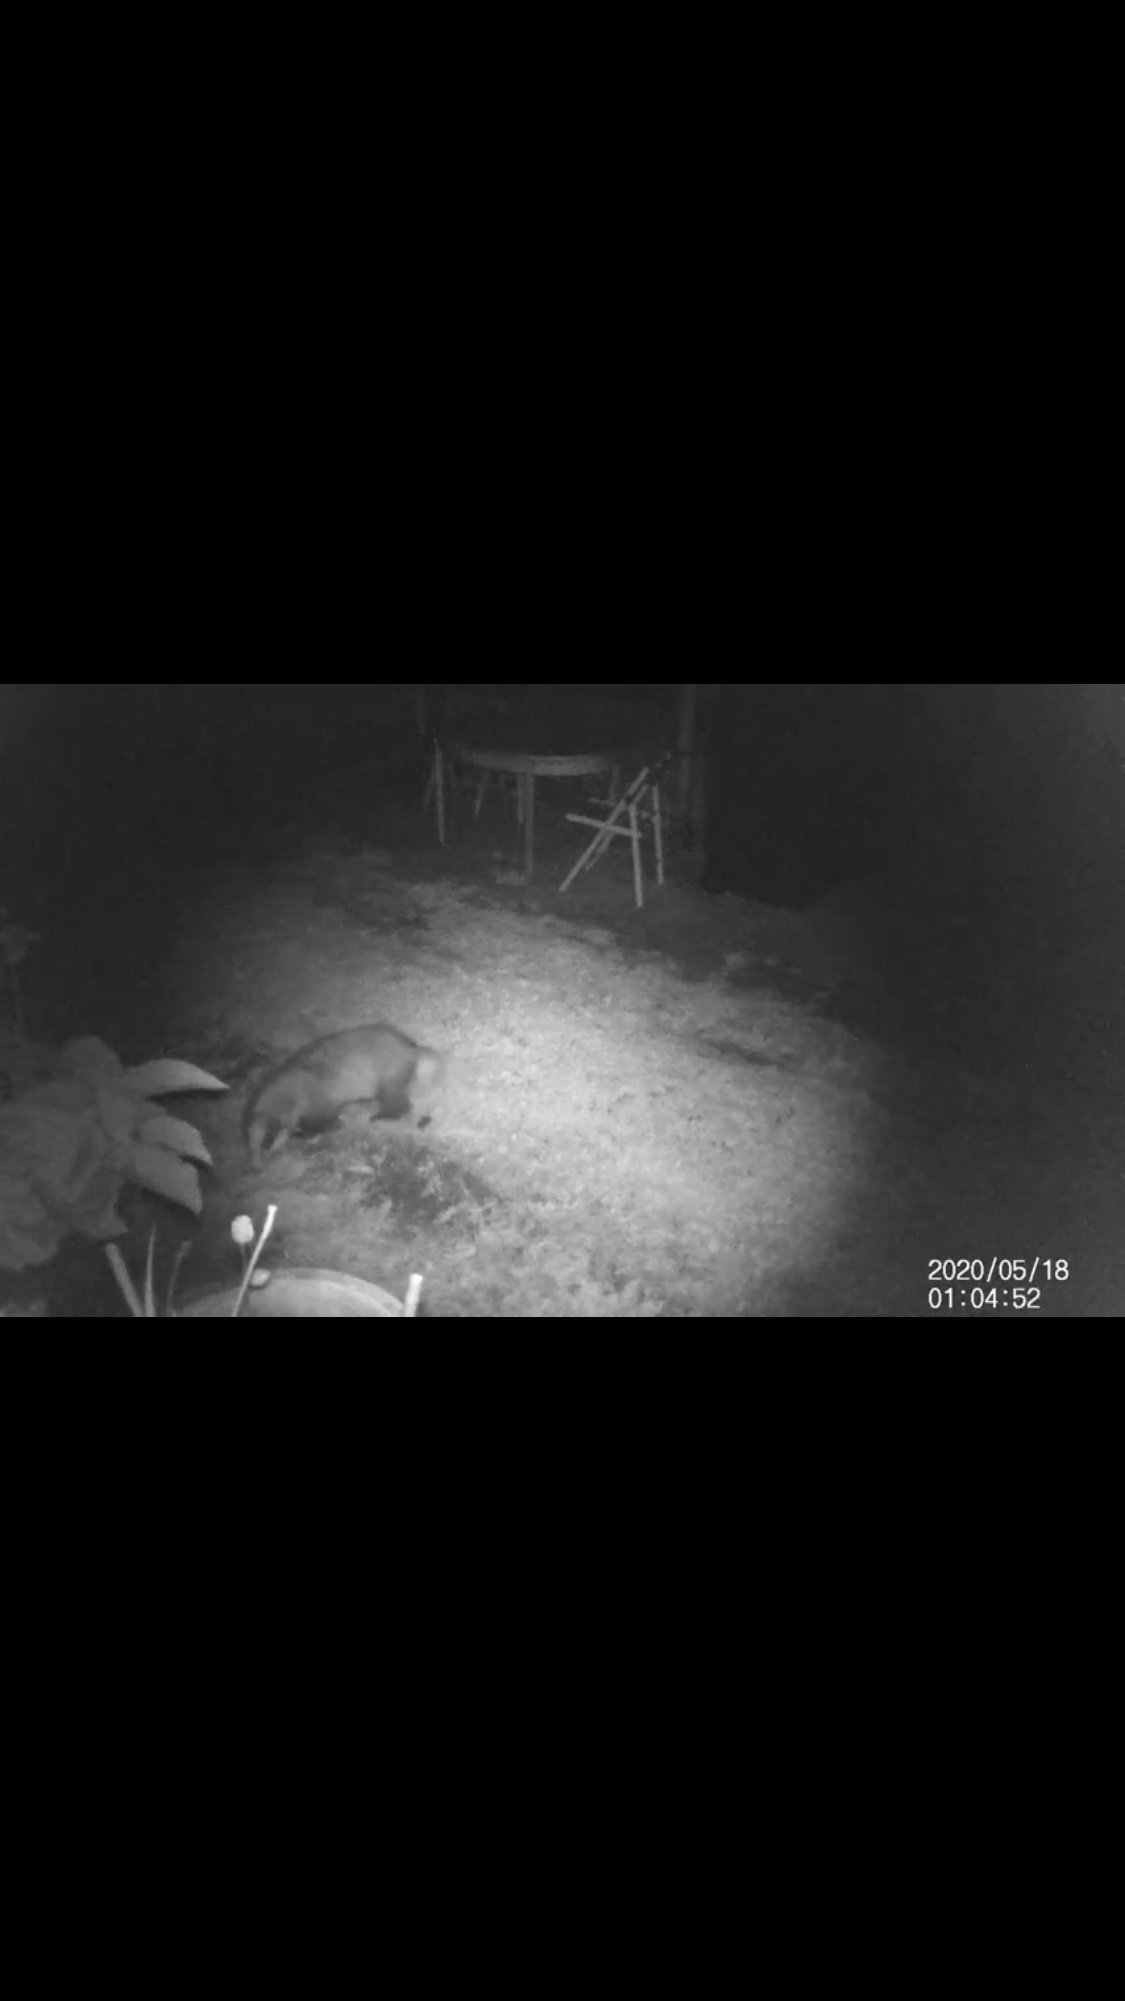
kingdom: Animalia
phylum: Chordata
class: Mammalia
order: Carnivora
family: Mustelidae
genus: Meles
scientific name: Meles meles
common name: Eurasian badger
